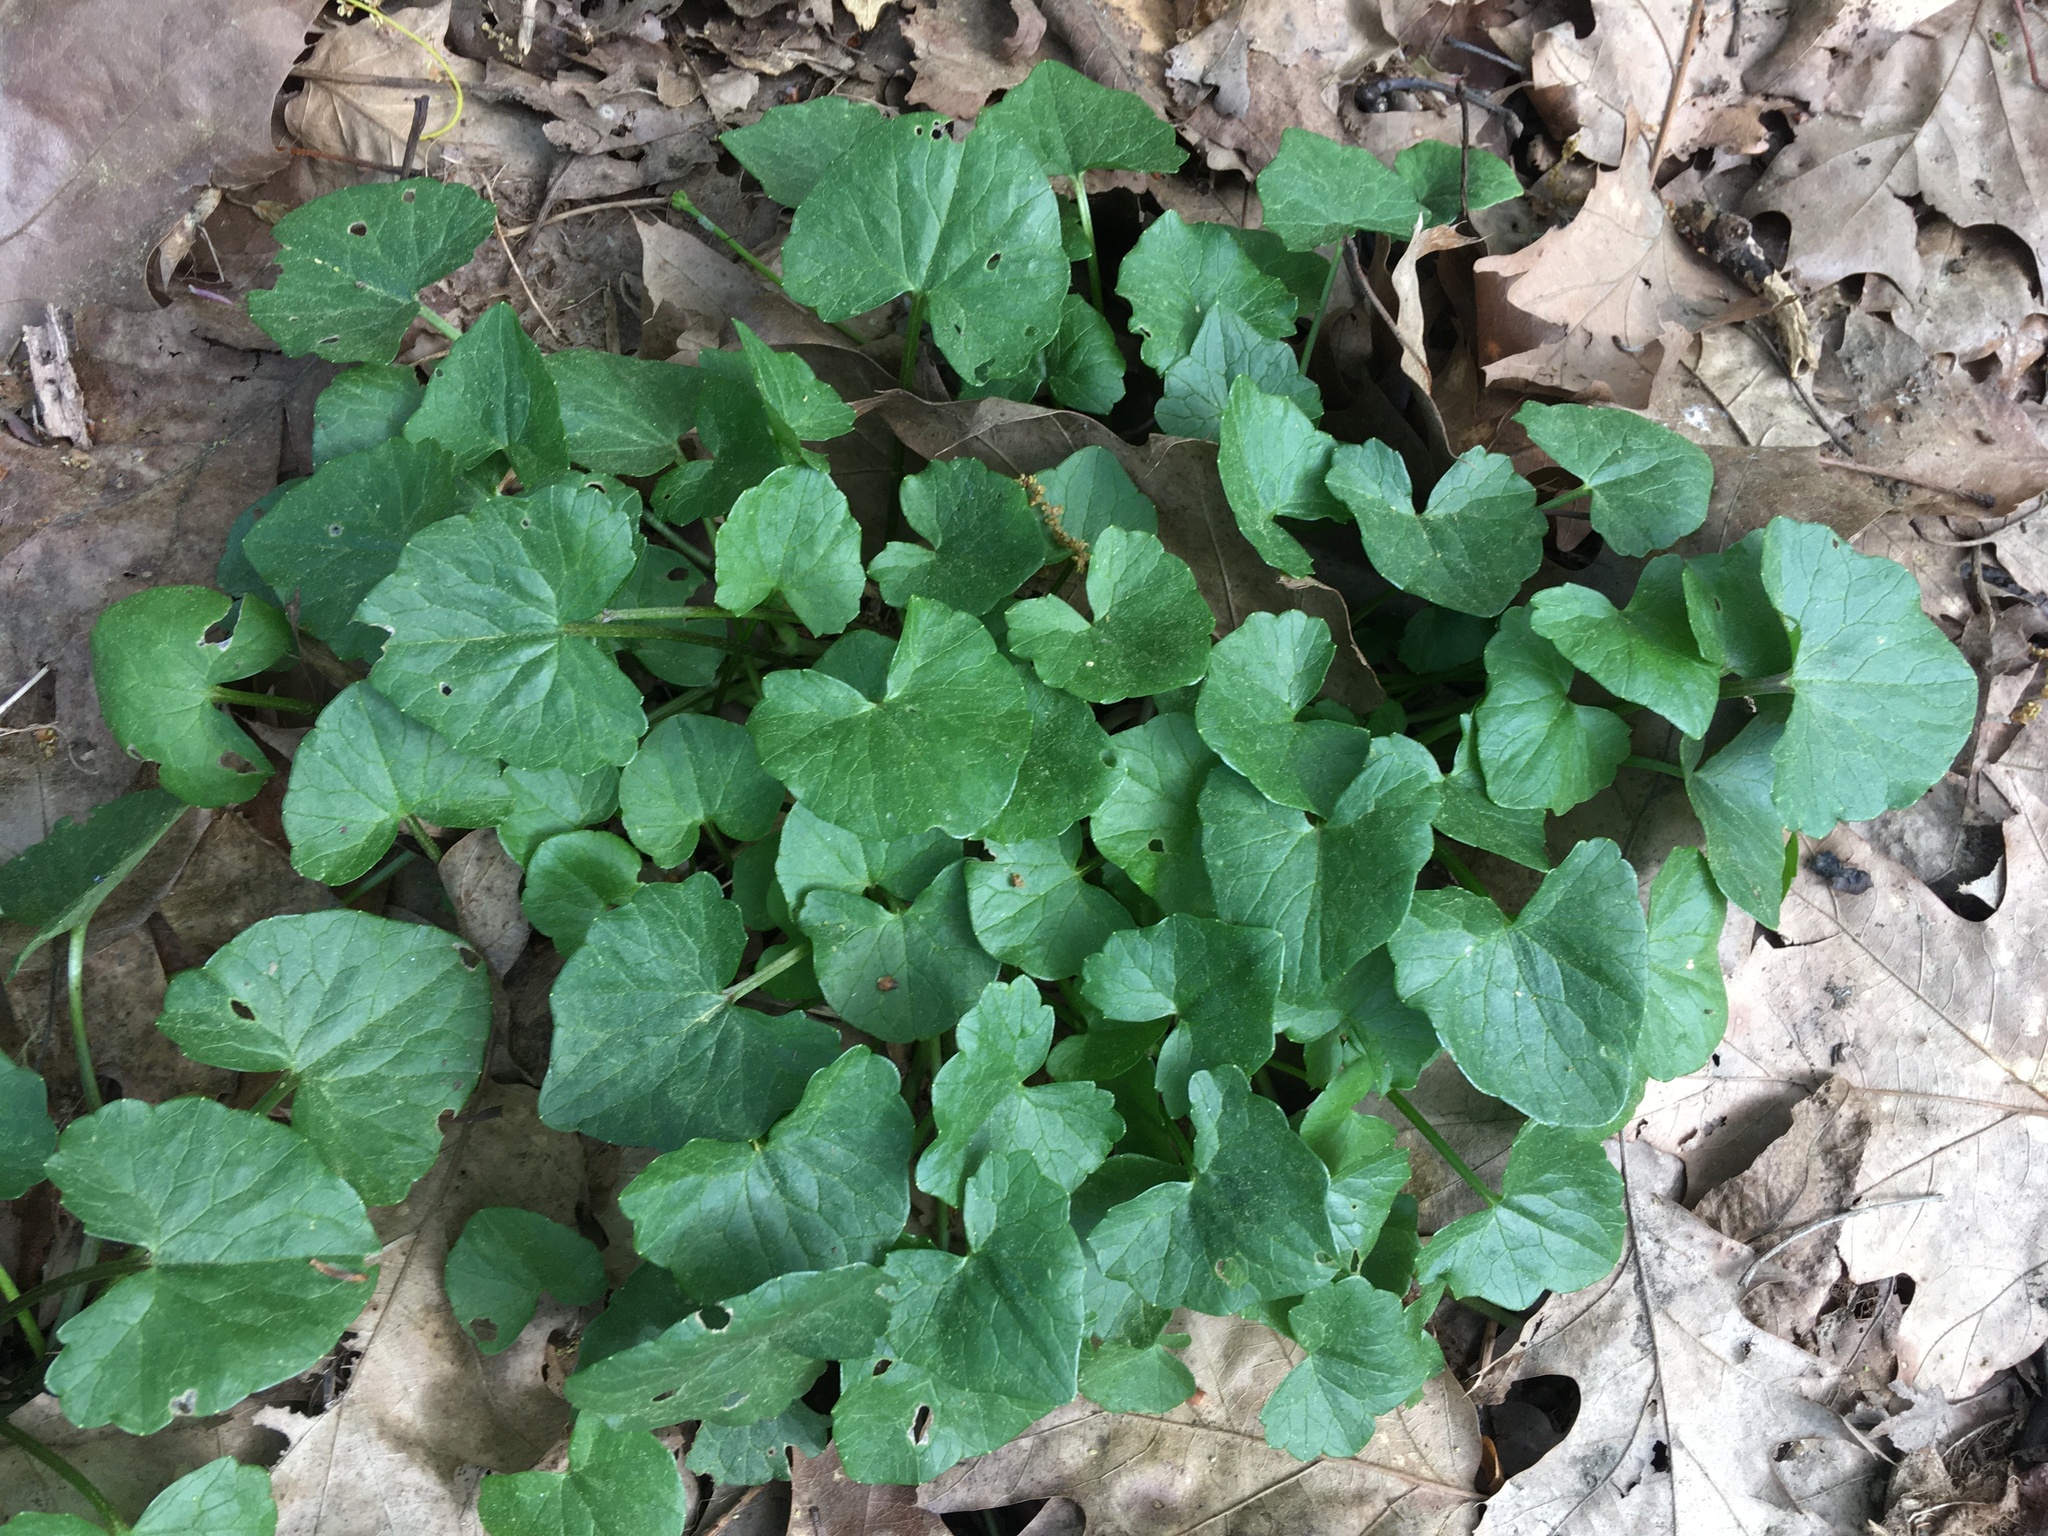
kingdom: Plantae
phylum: Tracheophyta
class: Magnoliopsida
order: Ranunculales
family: Ranunculaceae
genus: Ficaria
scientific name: Ficaria verna
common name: Lesser celandine
